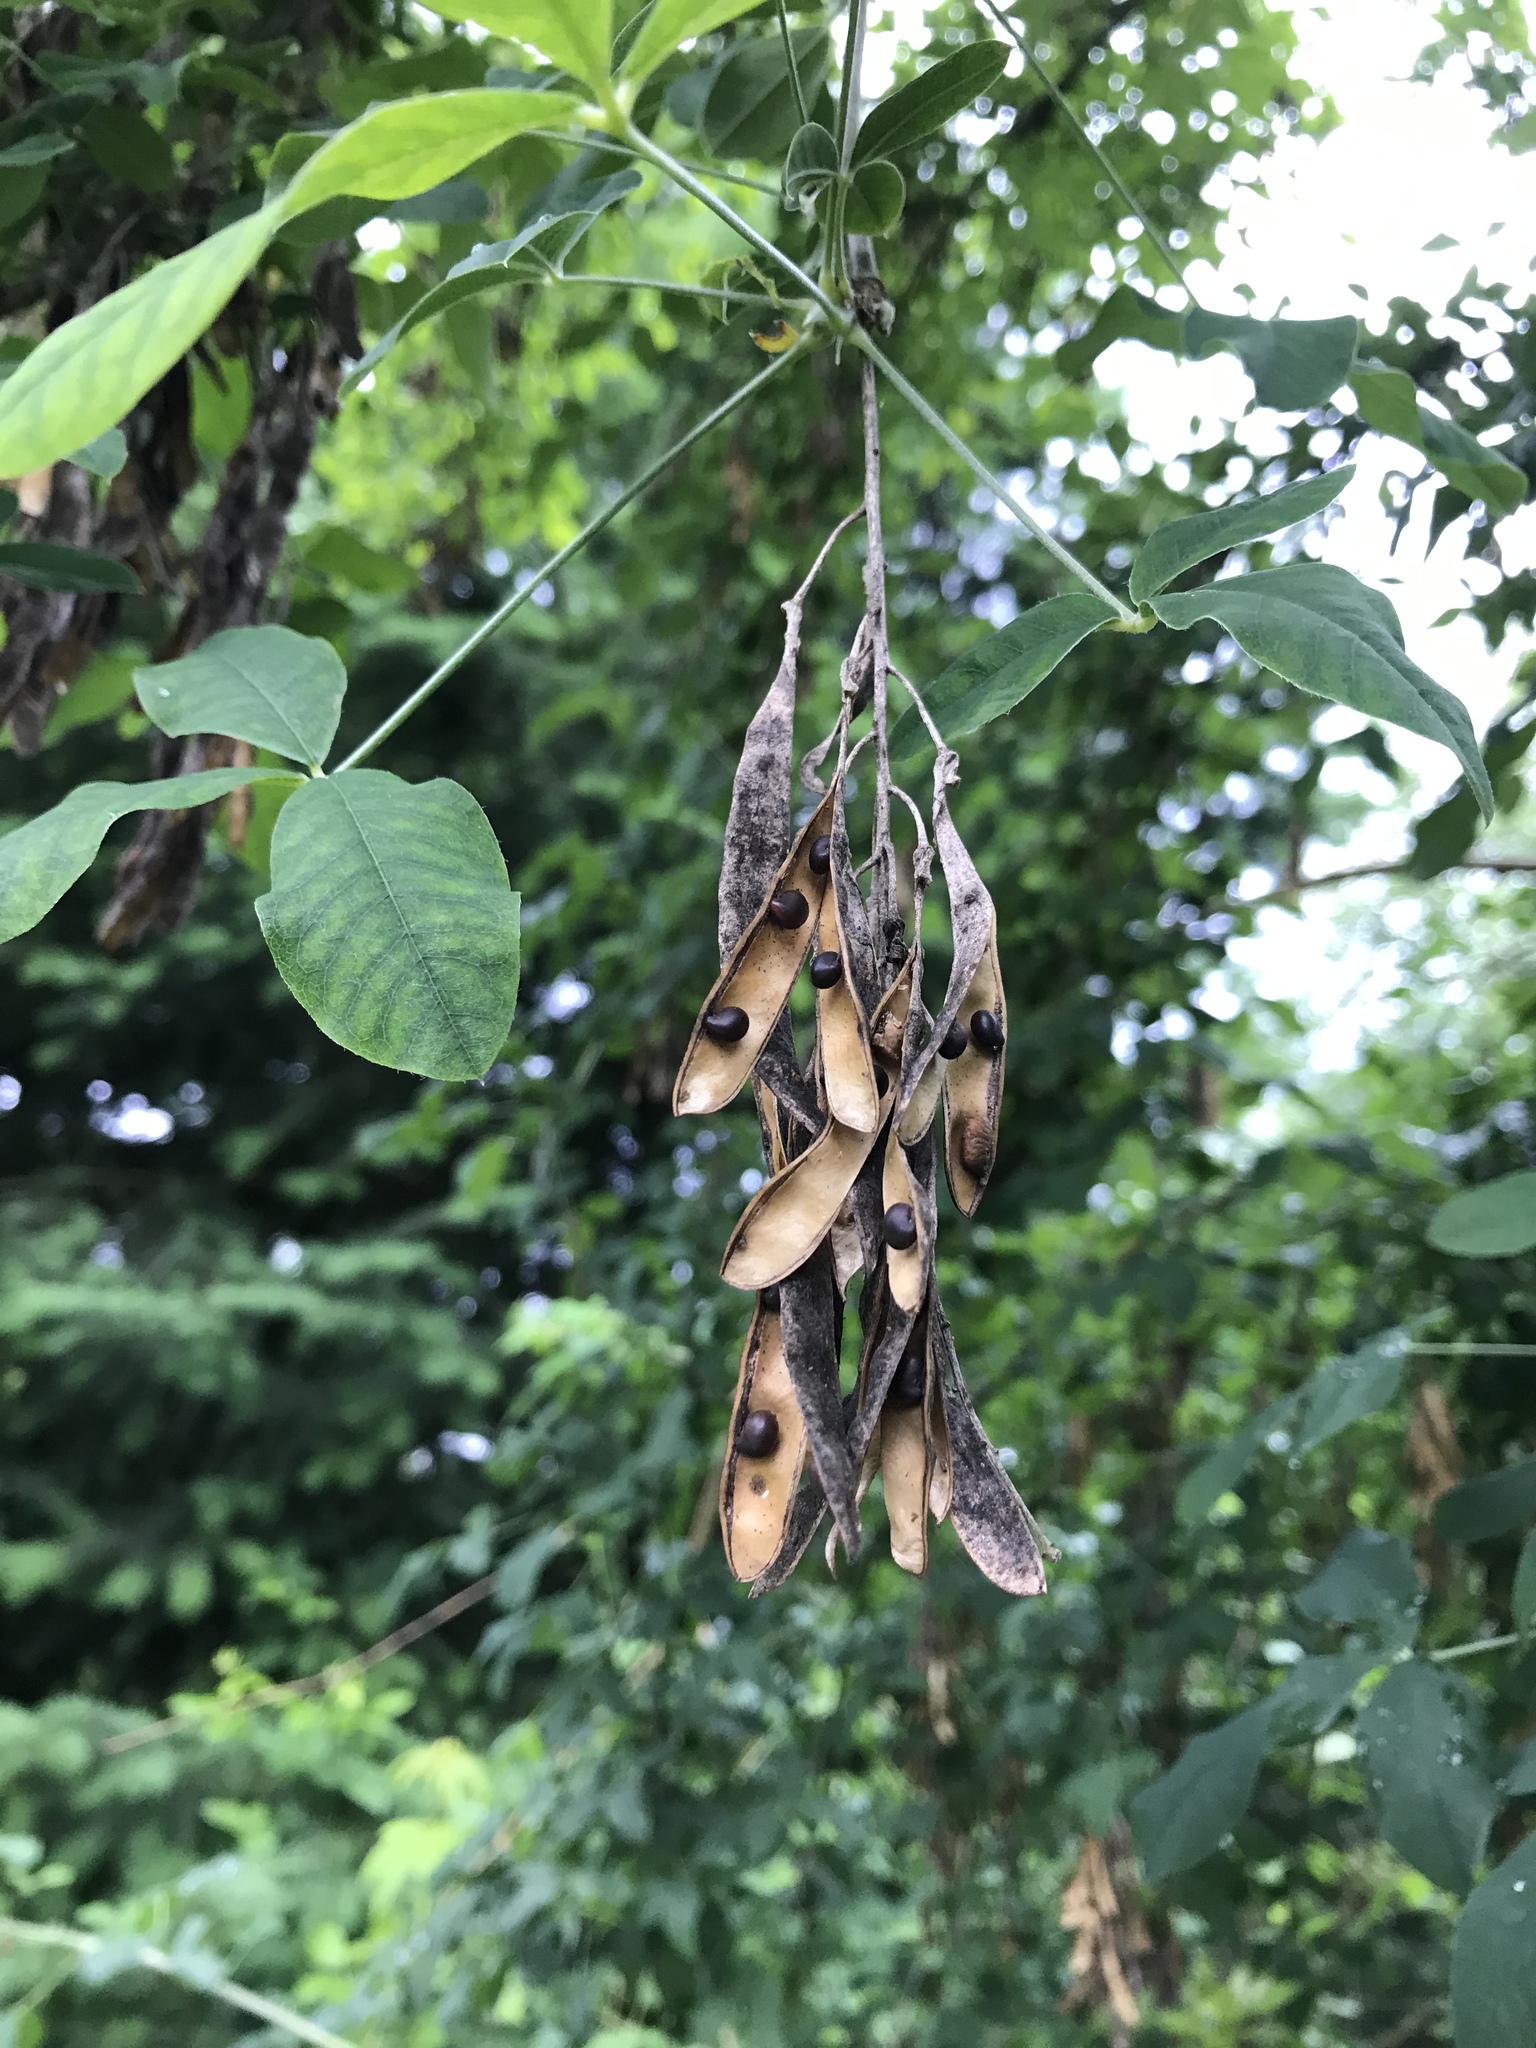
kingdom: Plantae
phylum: Tracheophyta
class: Magnoliopsida
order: Fabales
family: Fabaceae
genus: Laburnum
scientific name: Laburnum anagyroides
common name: Laburnum
